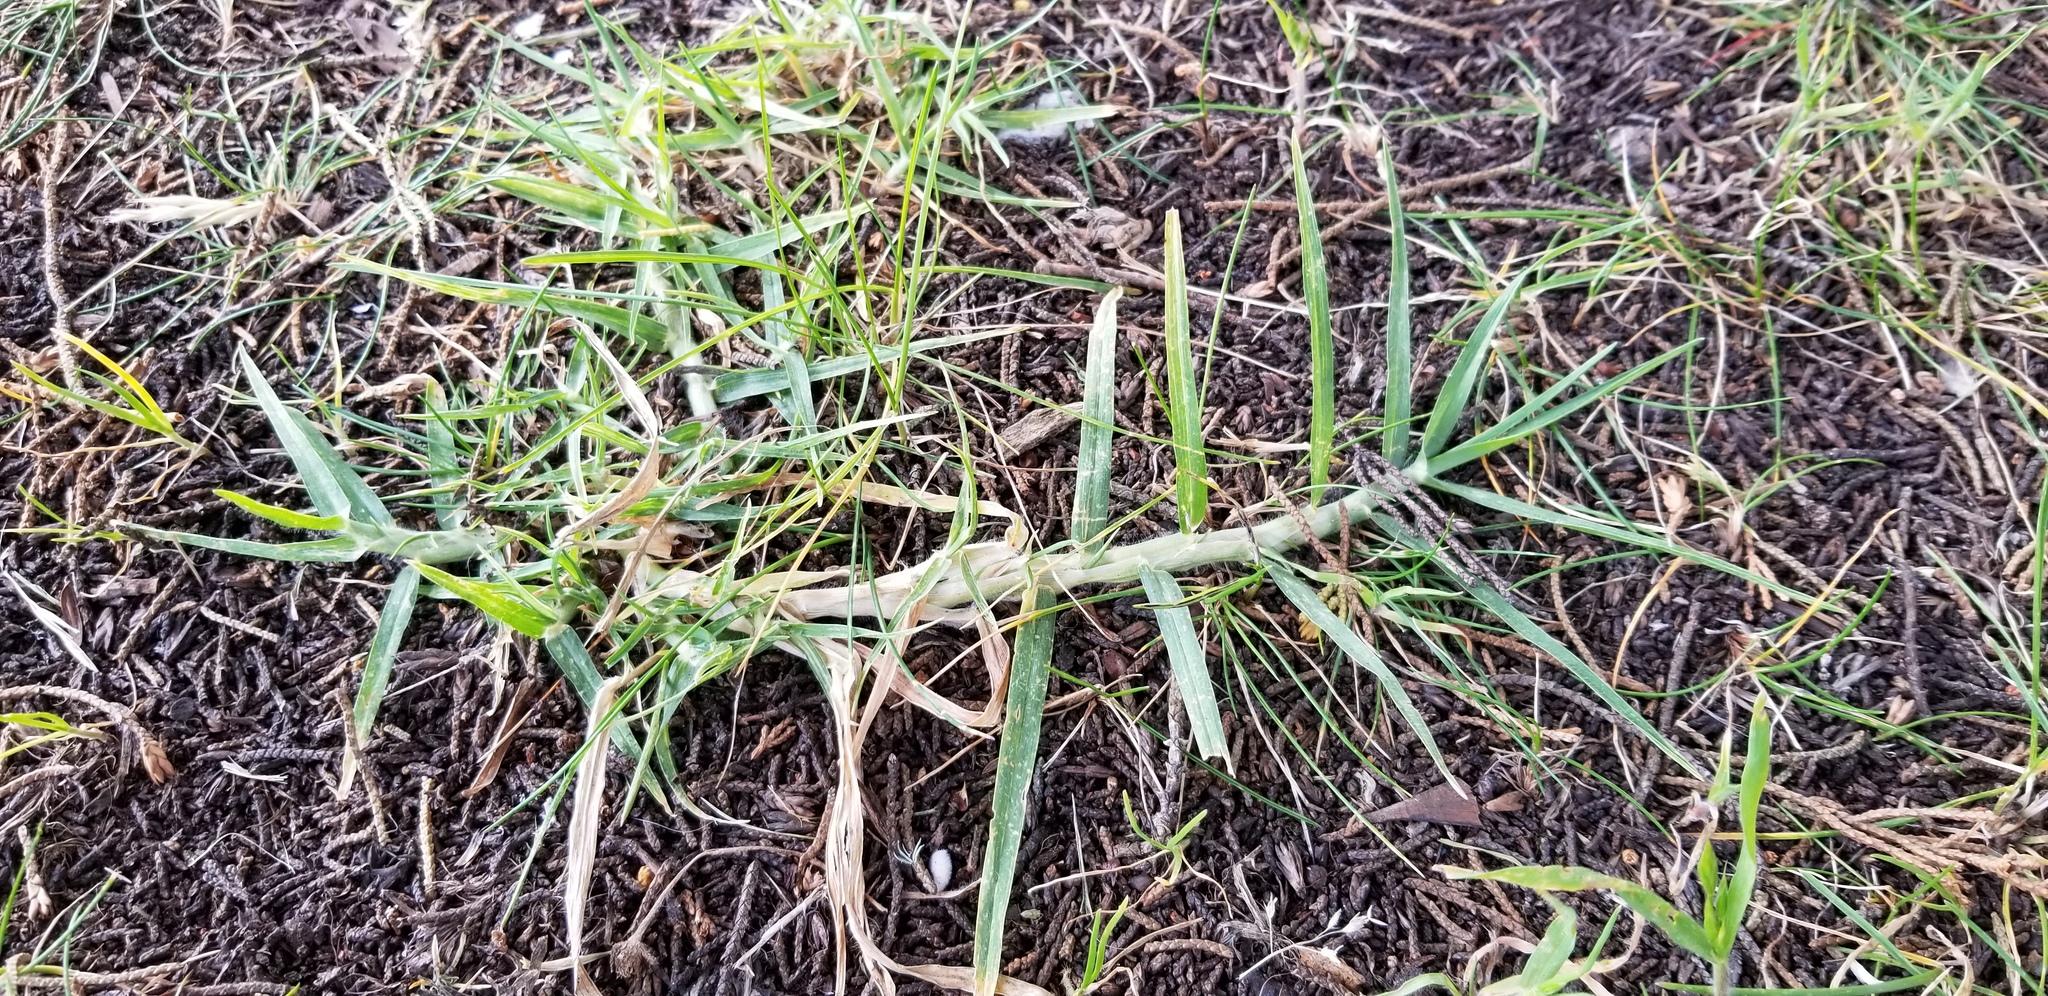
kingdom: Plantae
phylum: Tracheophyta
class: Liliopsida
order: Poales
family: Poaceae
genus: Cenchrus
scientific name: Cenchrus clandestinus
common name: Kikuyugrass
